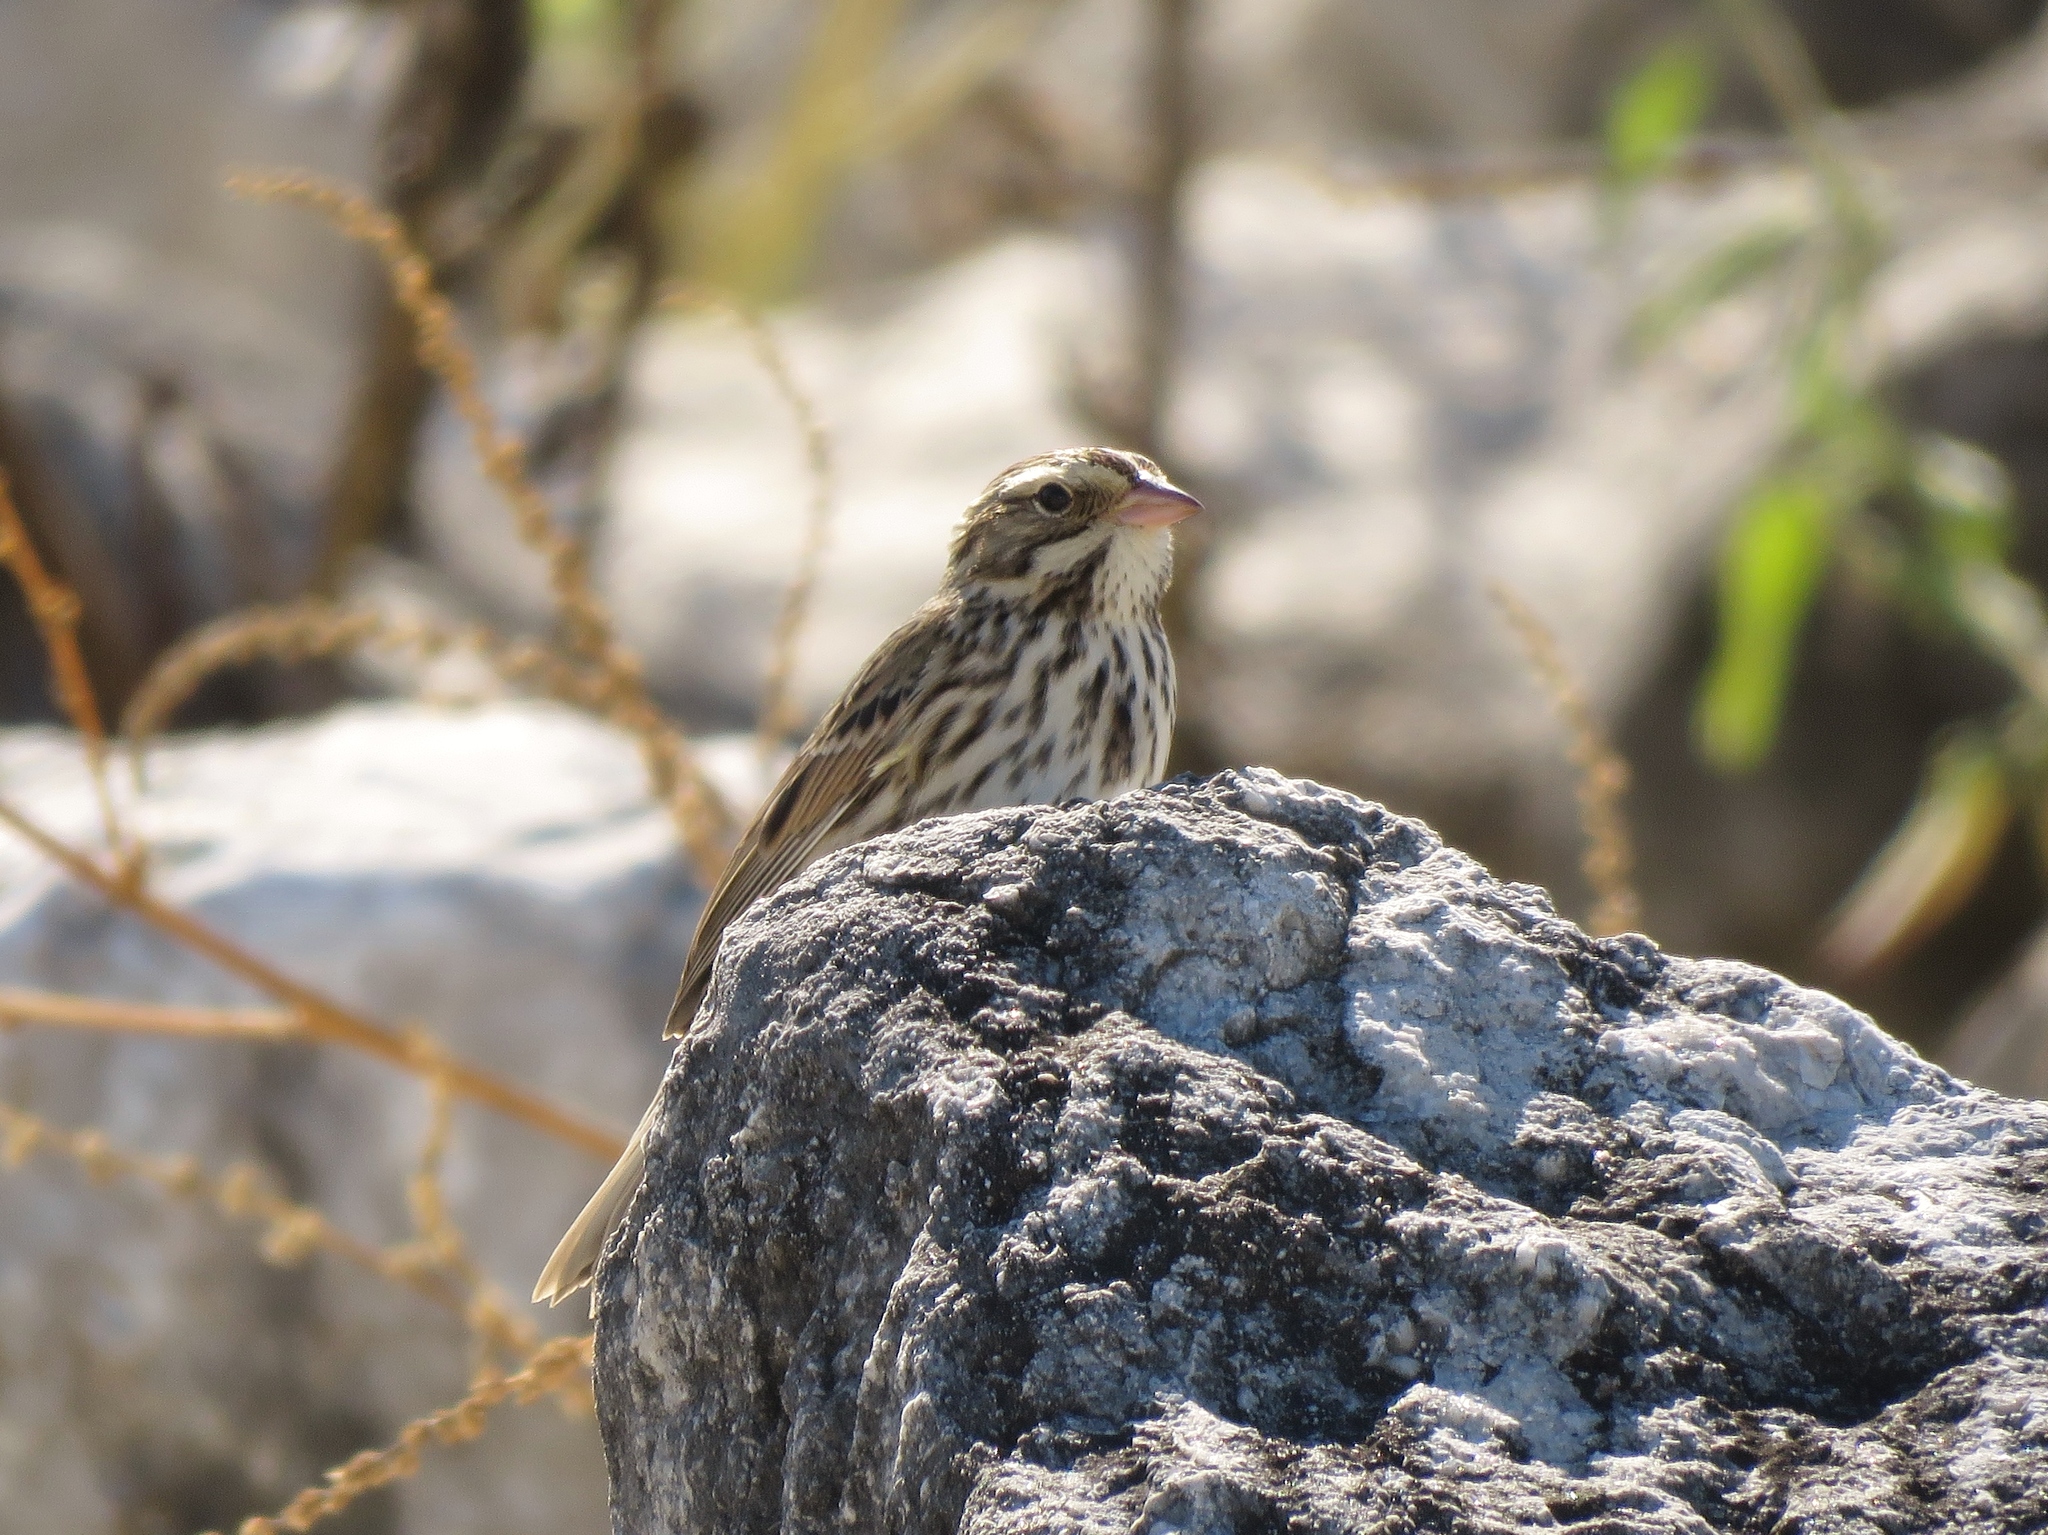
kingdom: Animalia
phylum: Chordata
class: Aves
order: Passeriformes
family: Passerellidae
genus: Passerculus
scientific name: Passerculus sandwichensis
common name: Savannah sparrow
